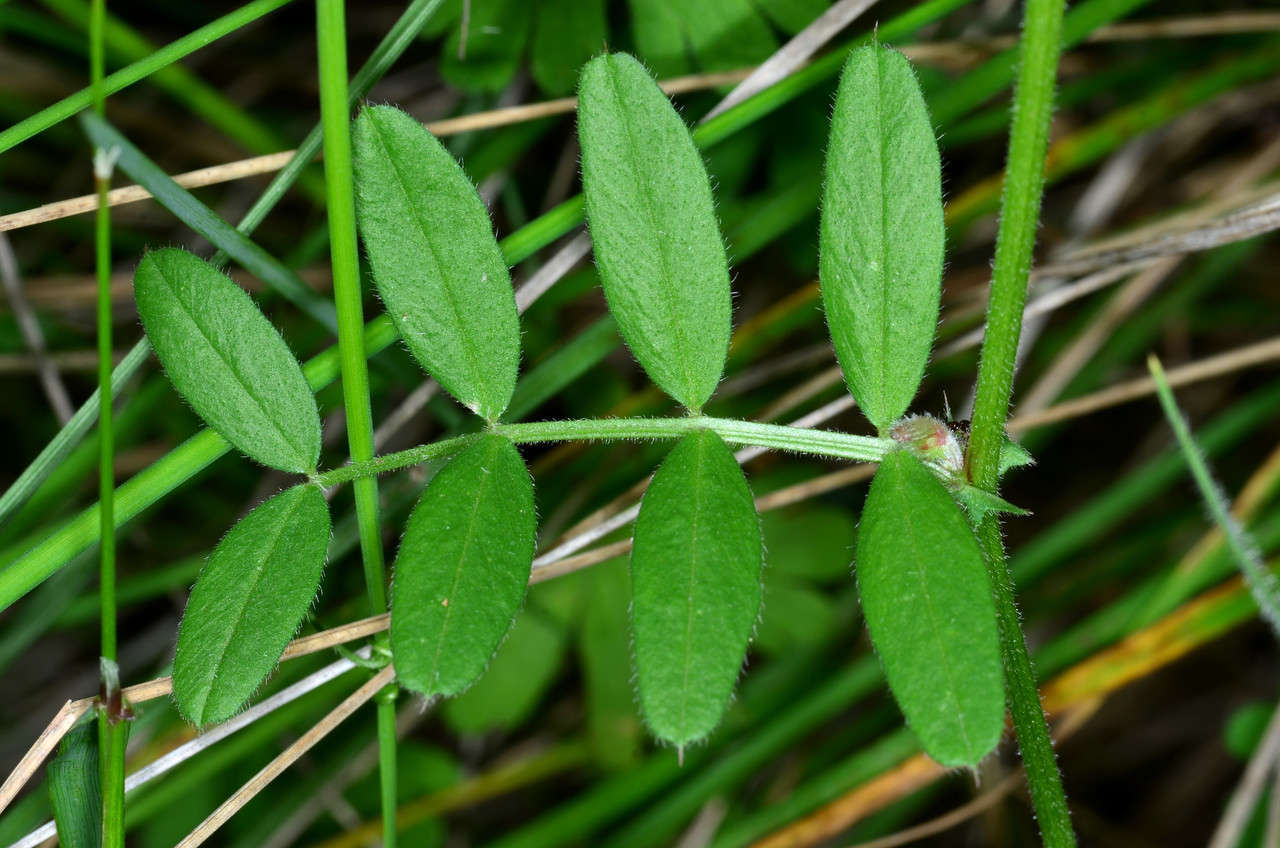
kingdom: Plantae
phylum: Tracheophyta
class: Magnoliopsida
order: Fabales
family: Fabaceae
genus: Vicia
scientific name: Vicia sativa
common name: Garden vetch
